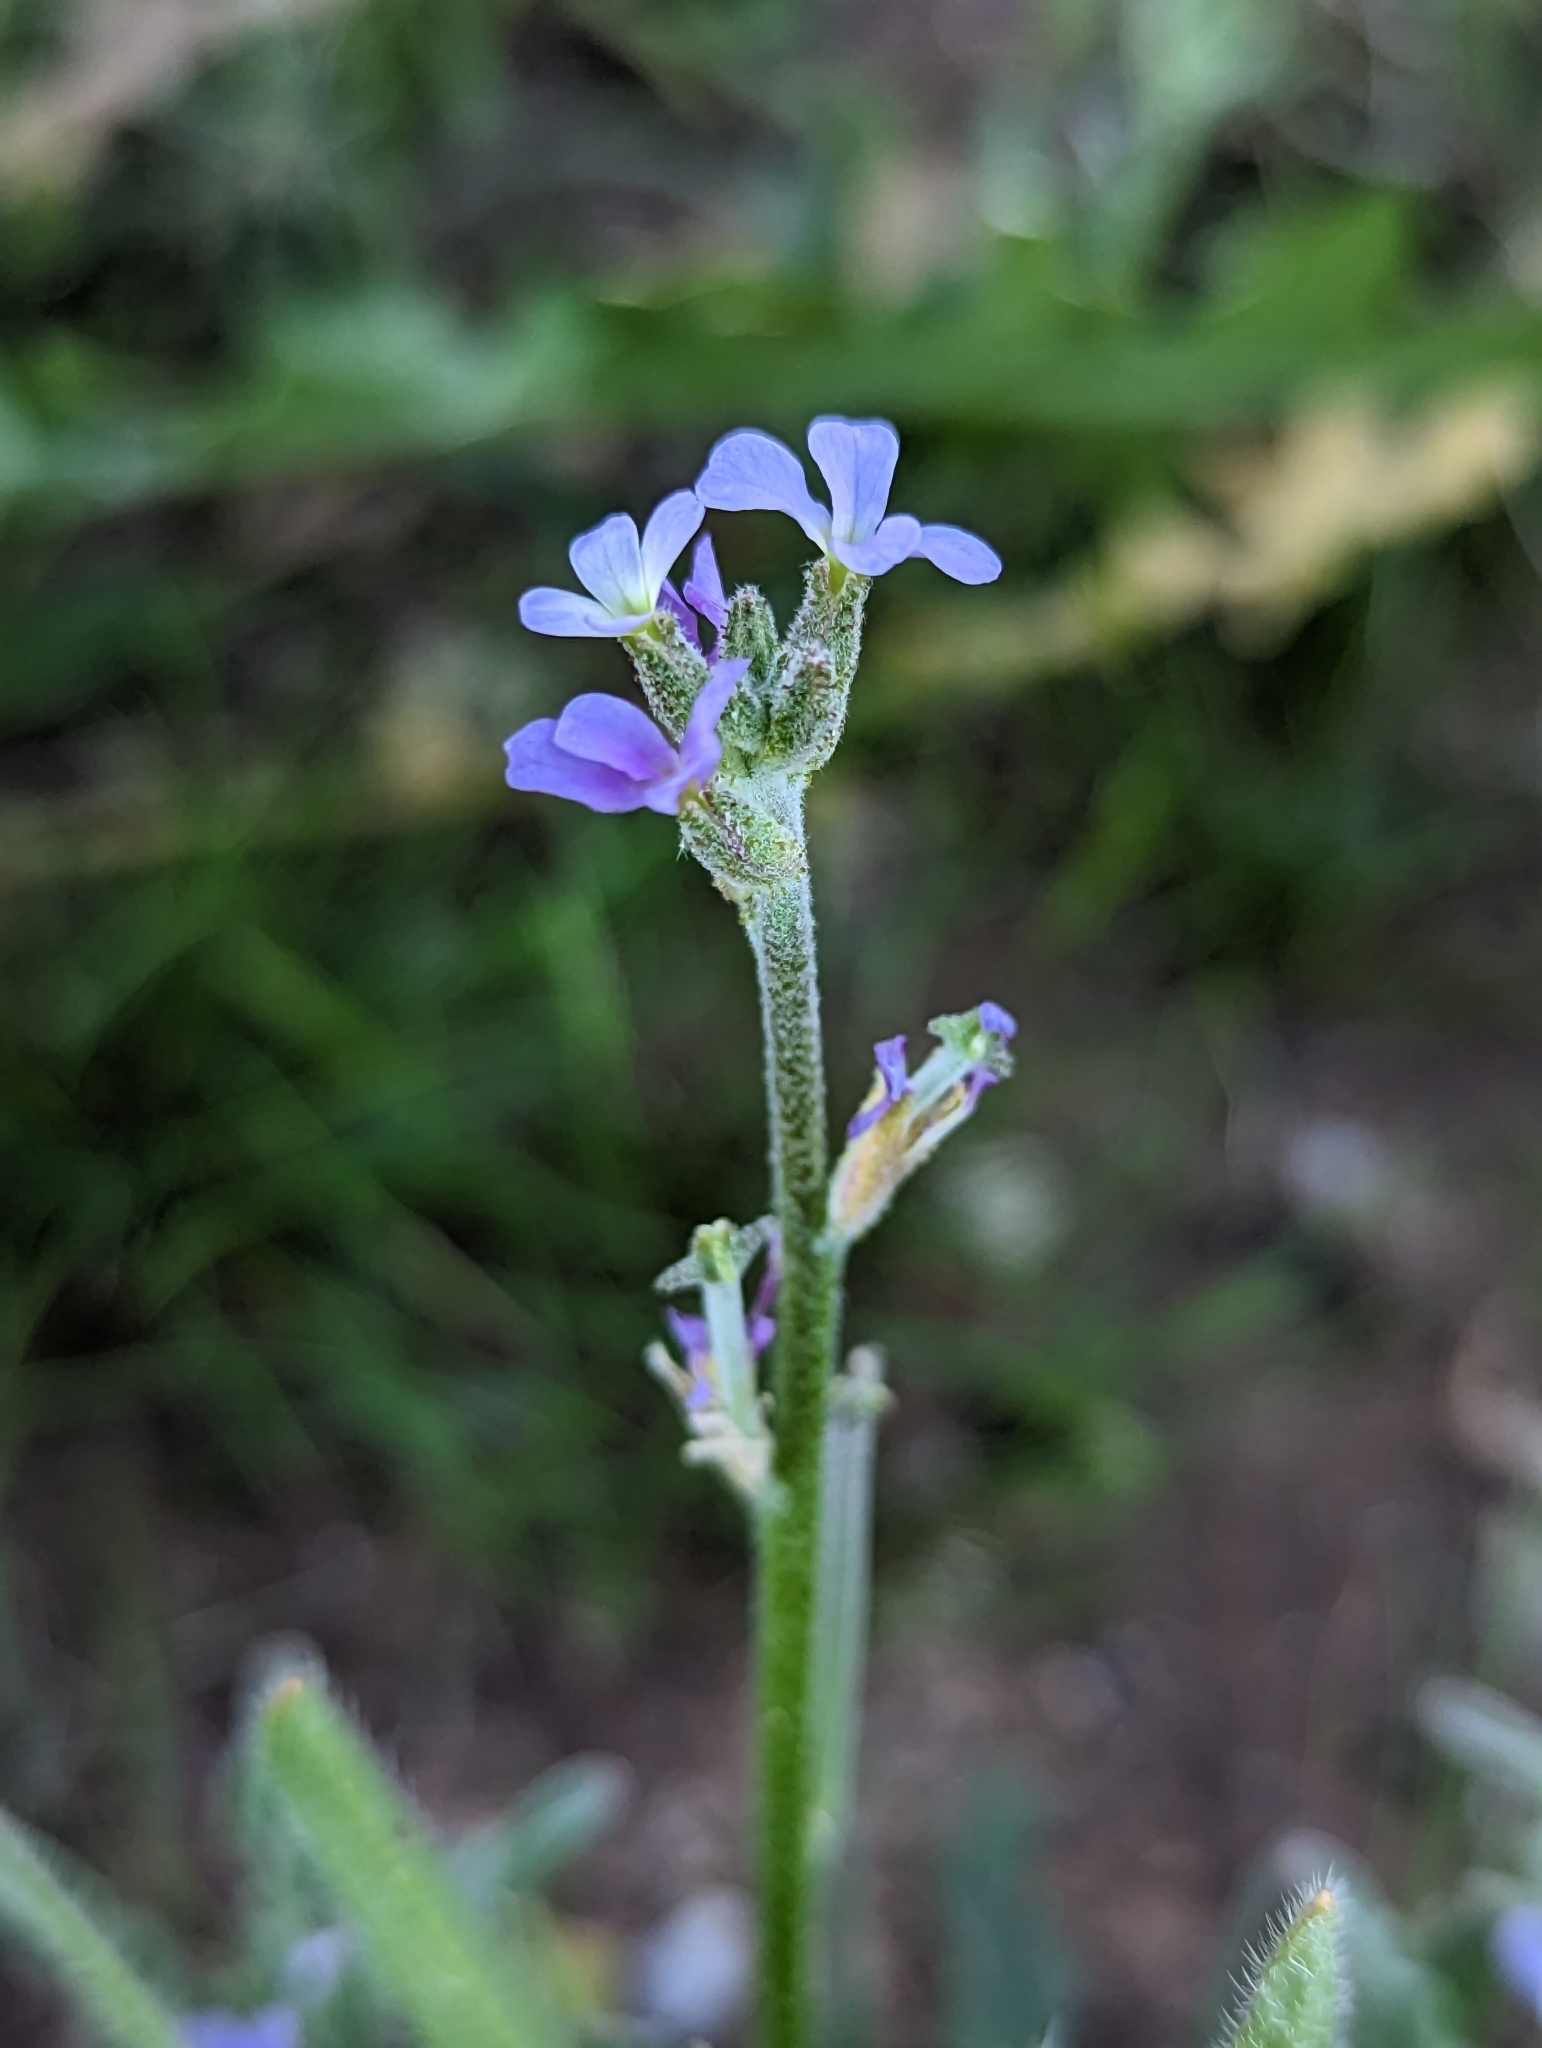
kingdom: Plantae
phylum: Tracheophyta
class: Magnoliopsida
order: Brassicales
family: Brassicaceae
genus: Matthiola
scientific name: Matthiola parviflora
